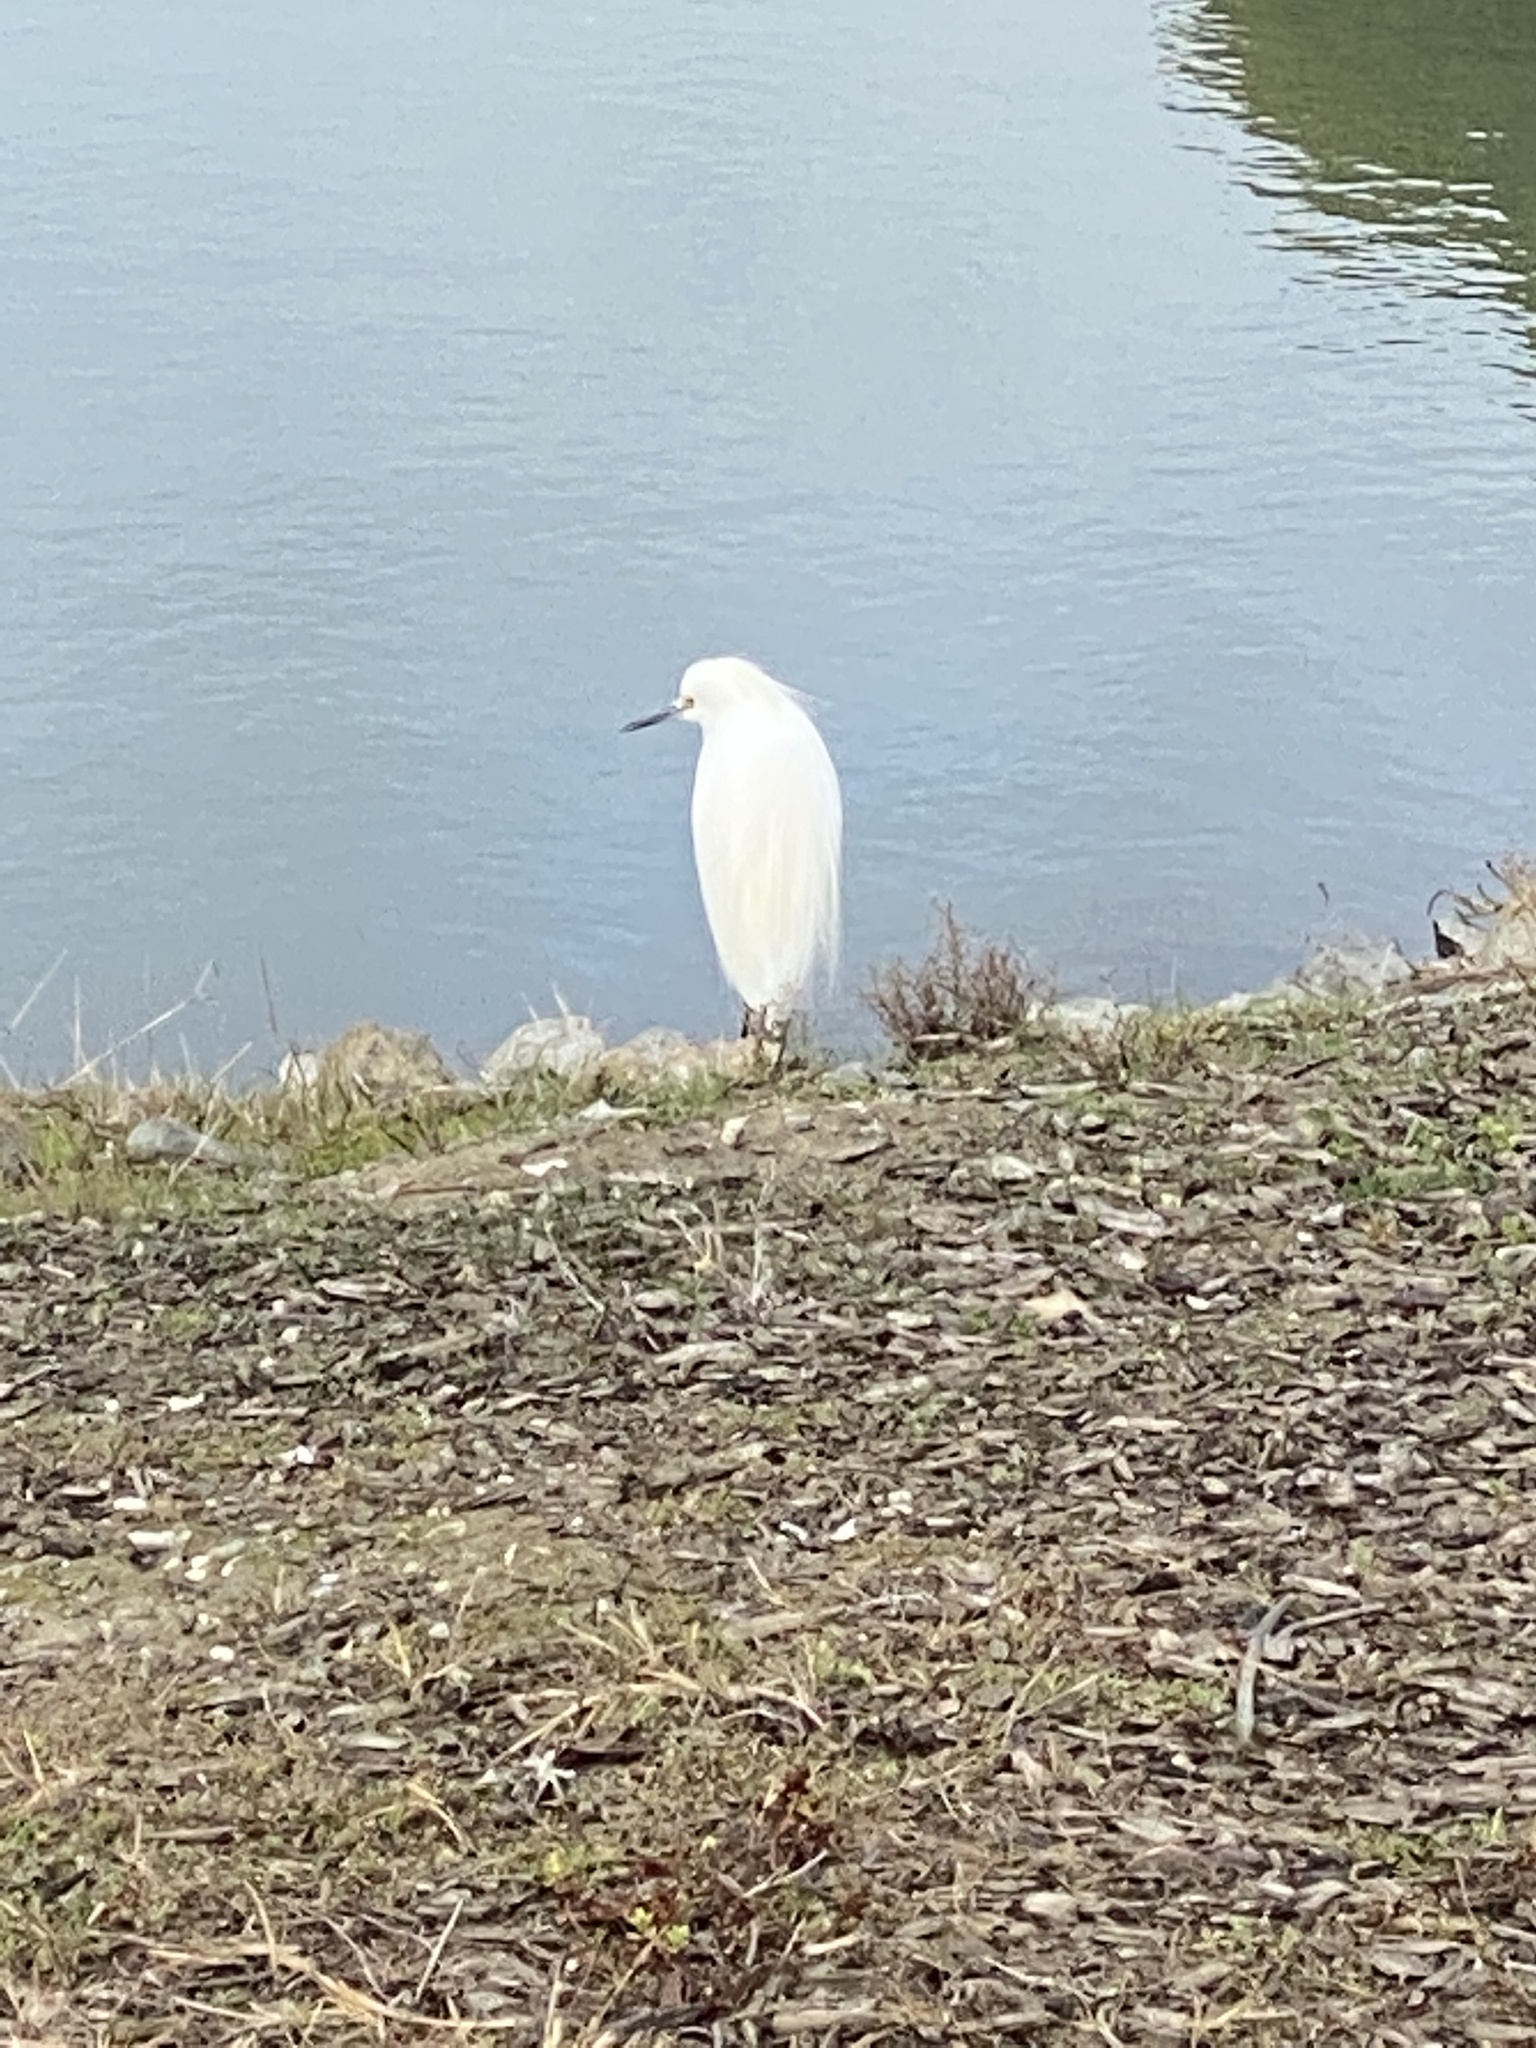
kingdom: Animalia
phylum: Chordata
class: Aves
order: Pelecaniformes
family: Ardeidae
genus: Egretta
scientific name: Egretta thula
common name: Snowy egret
